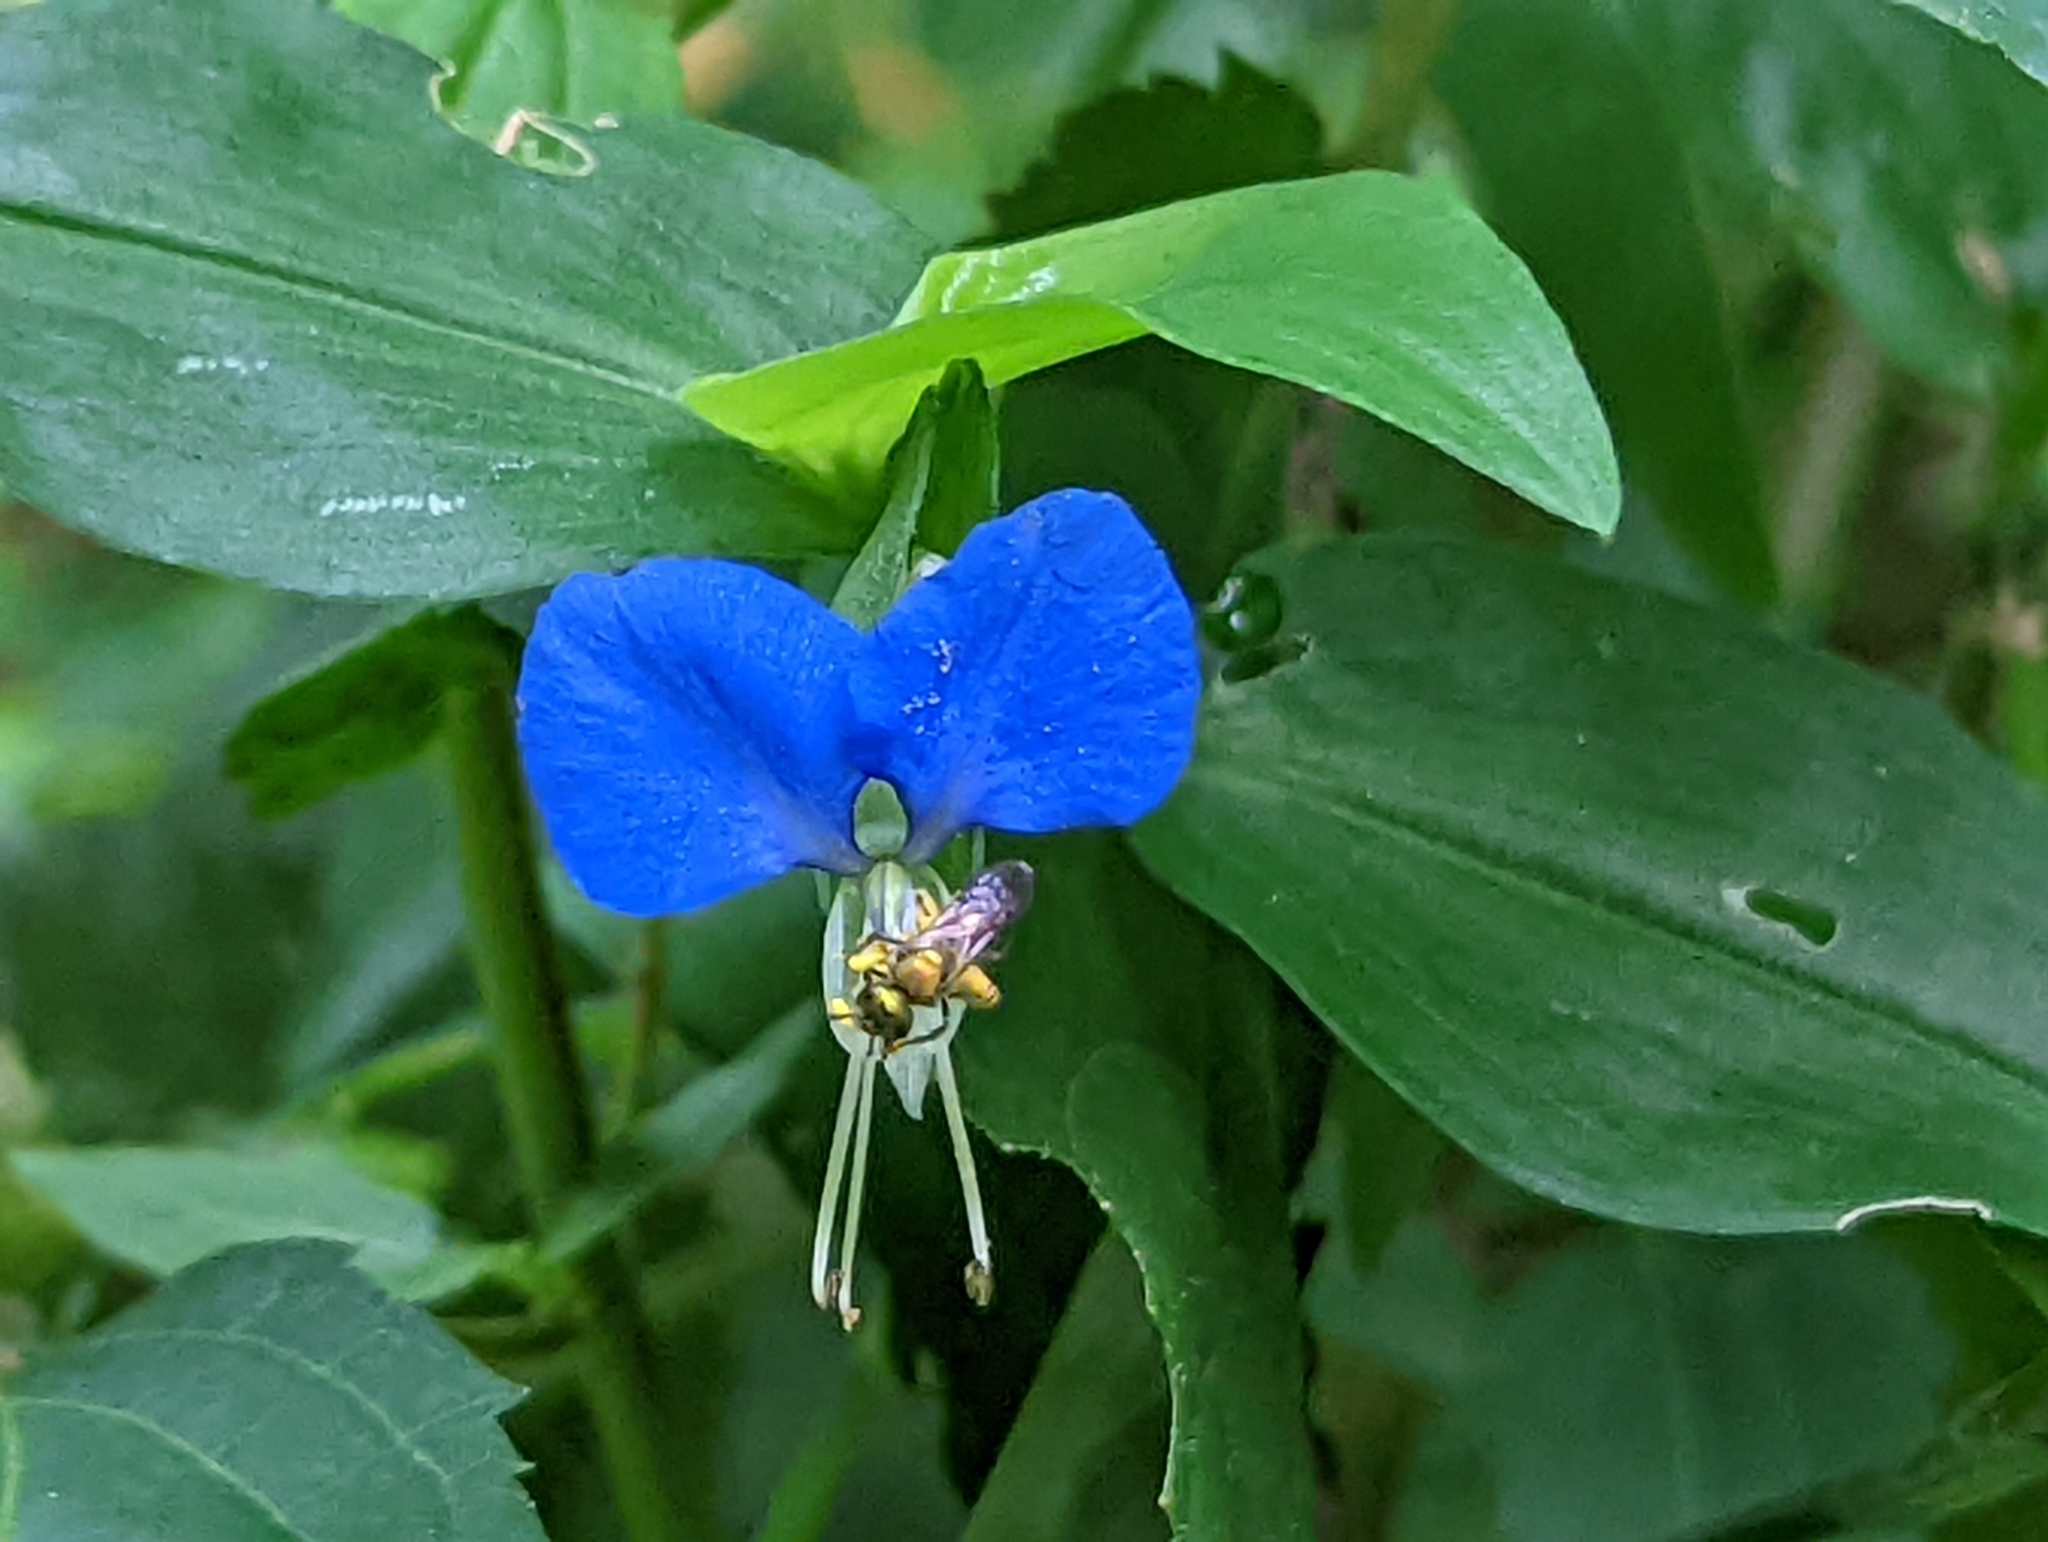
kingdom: Plantae
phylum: Tracheophyta
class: Liliopsida
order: Commelinales
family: Commelinaceae
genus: Commelina
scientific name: Commelina communis
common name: Asiatic dayflower
